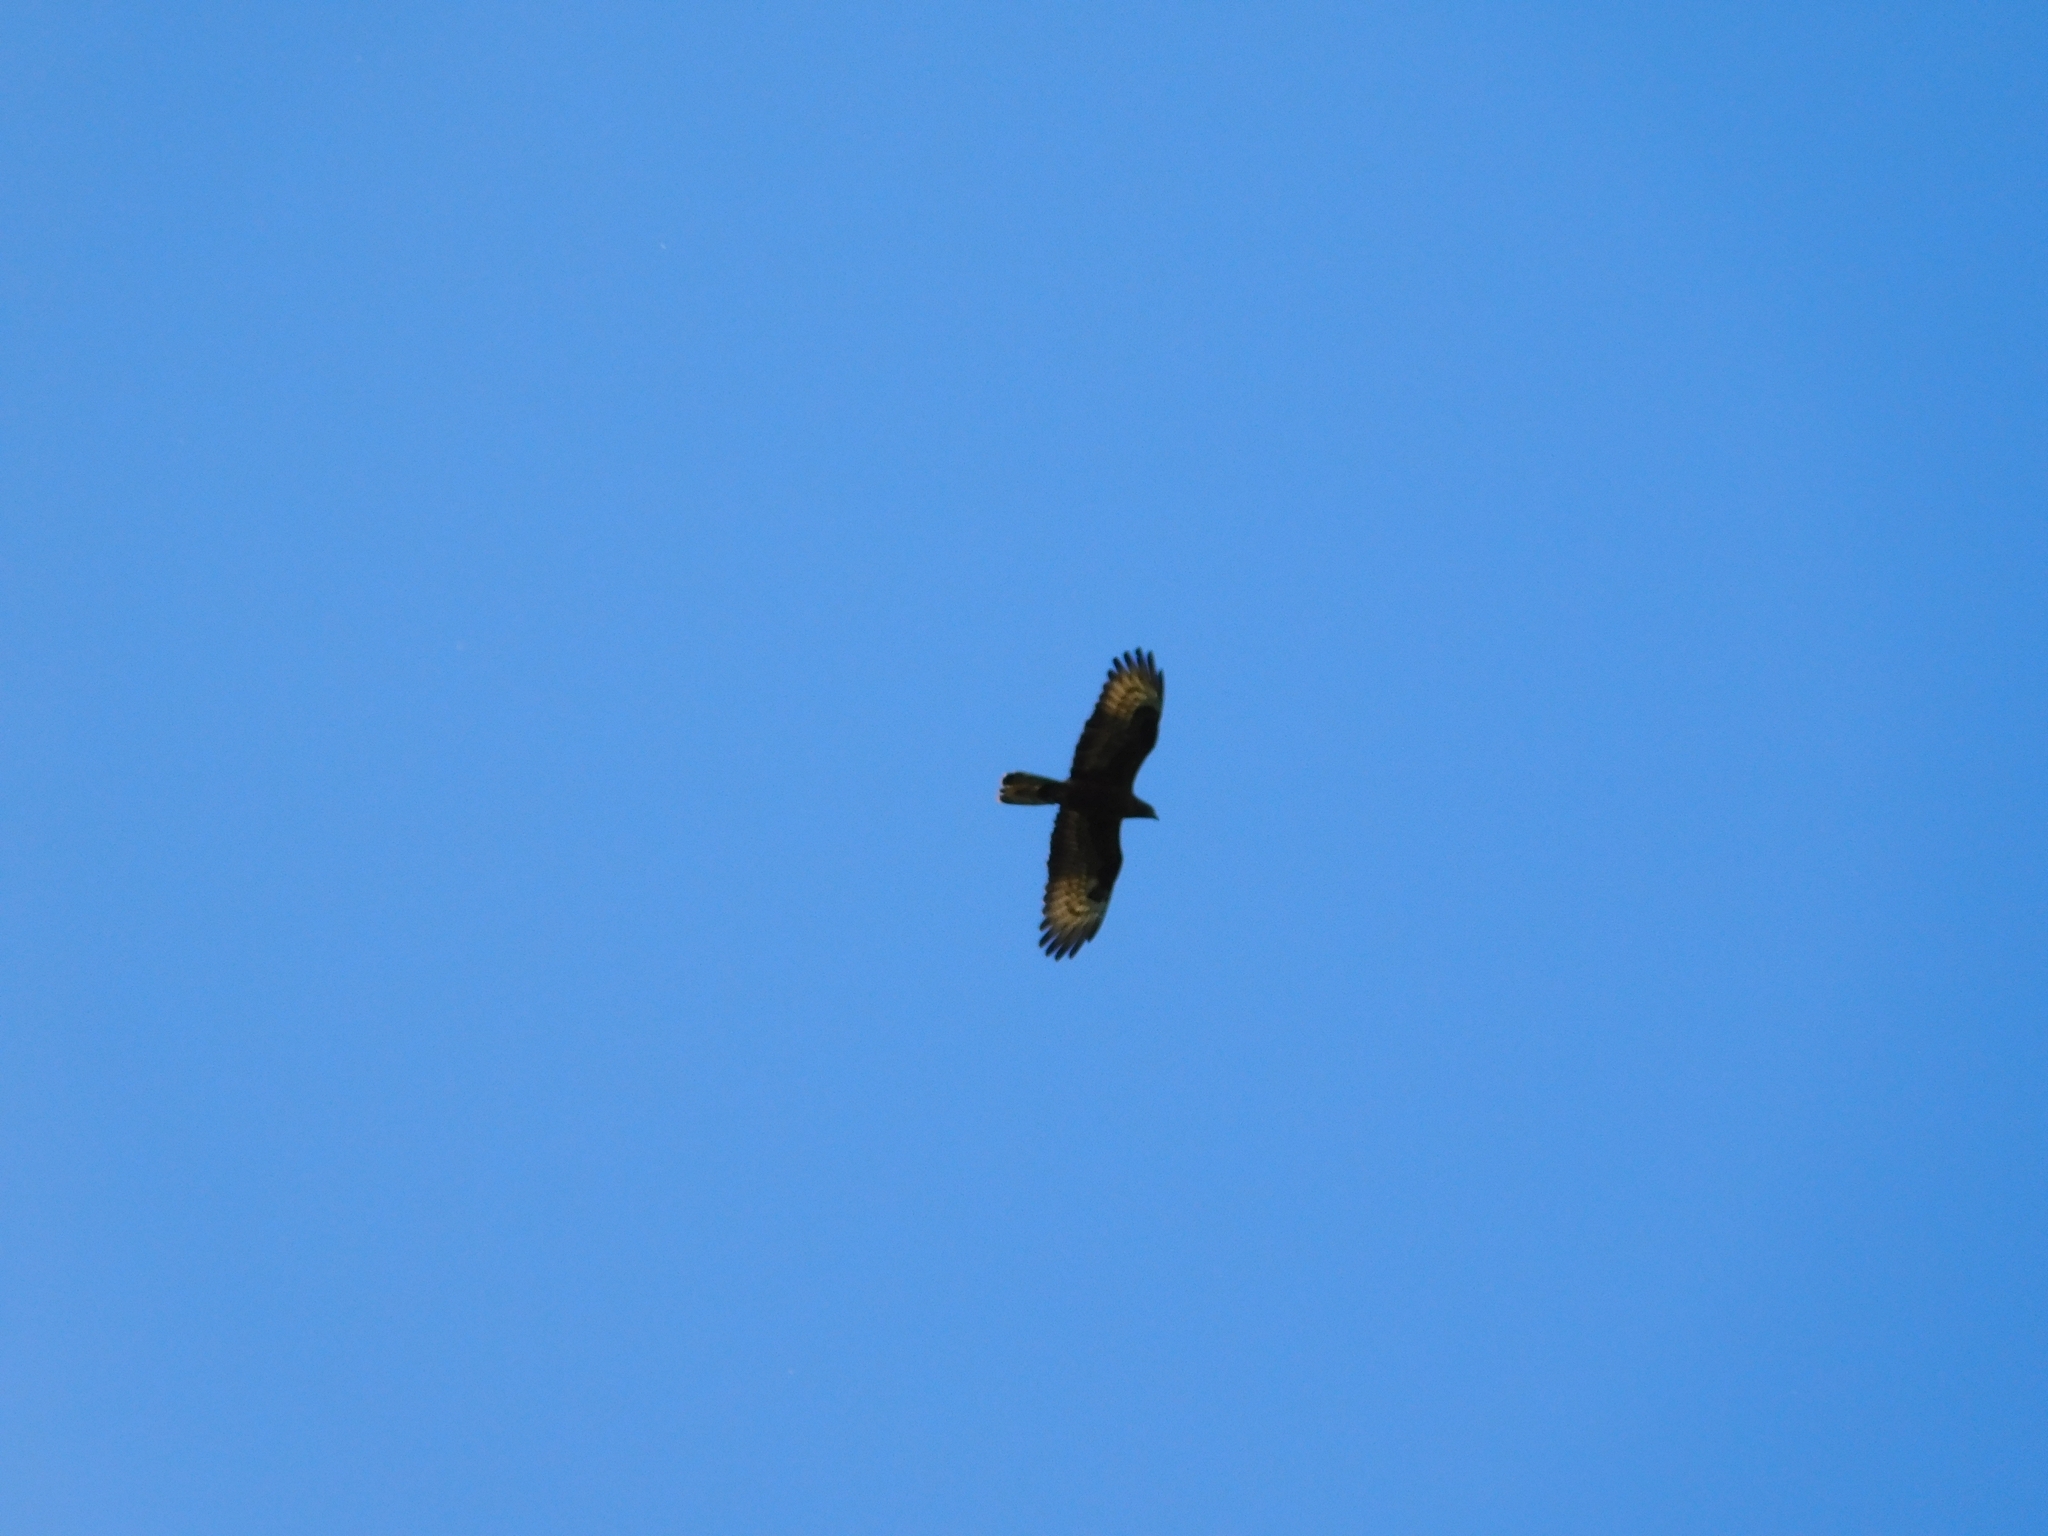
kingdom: Animalia
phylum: Chordata
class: Aves
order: Accipitriformes
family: Accipitridae
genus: Pernis
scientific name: Pernis apivorus
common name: European honey buzzard
